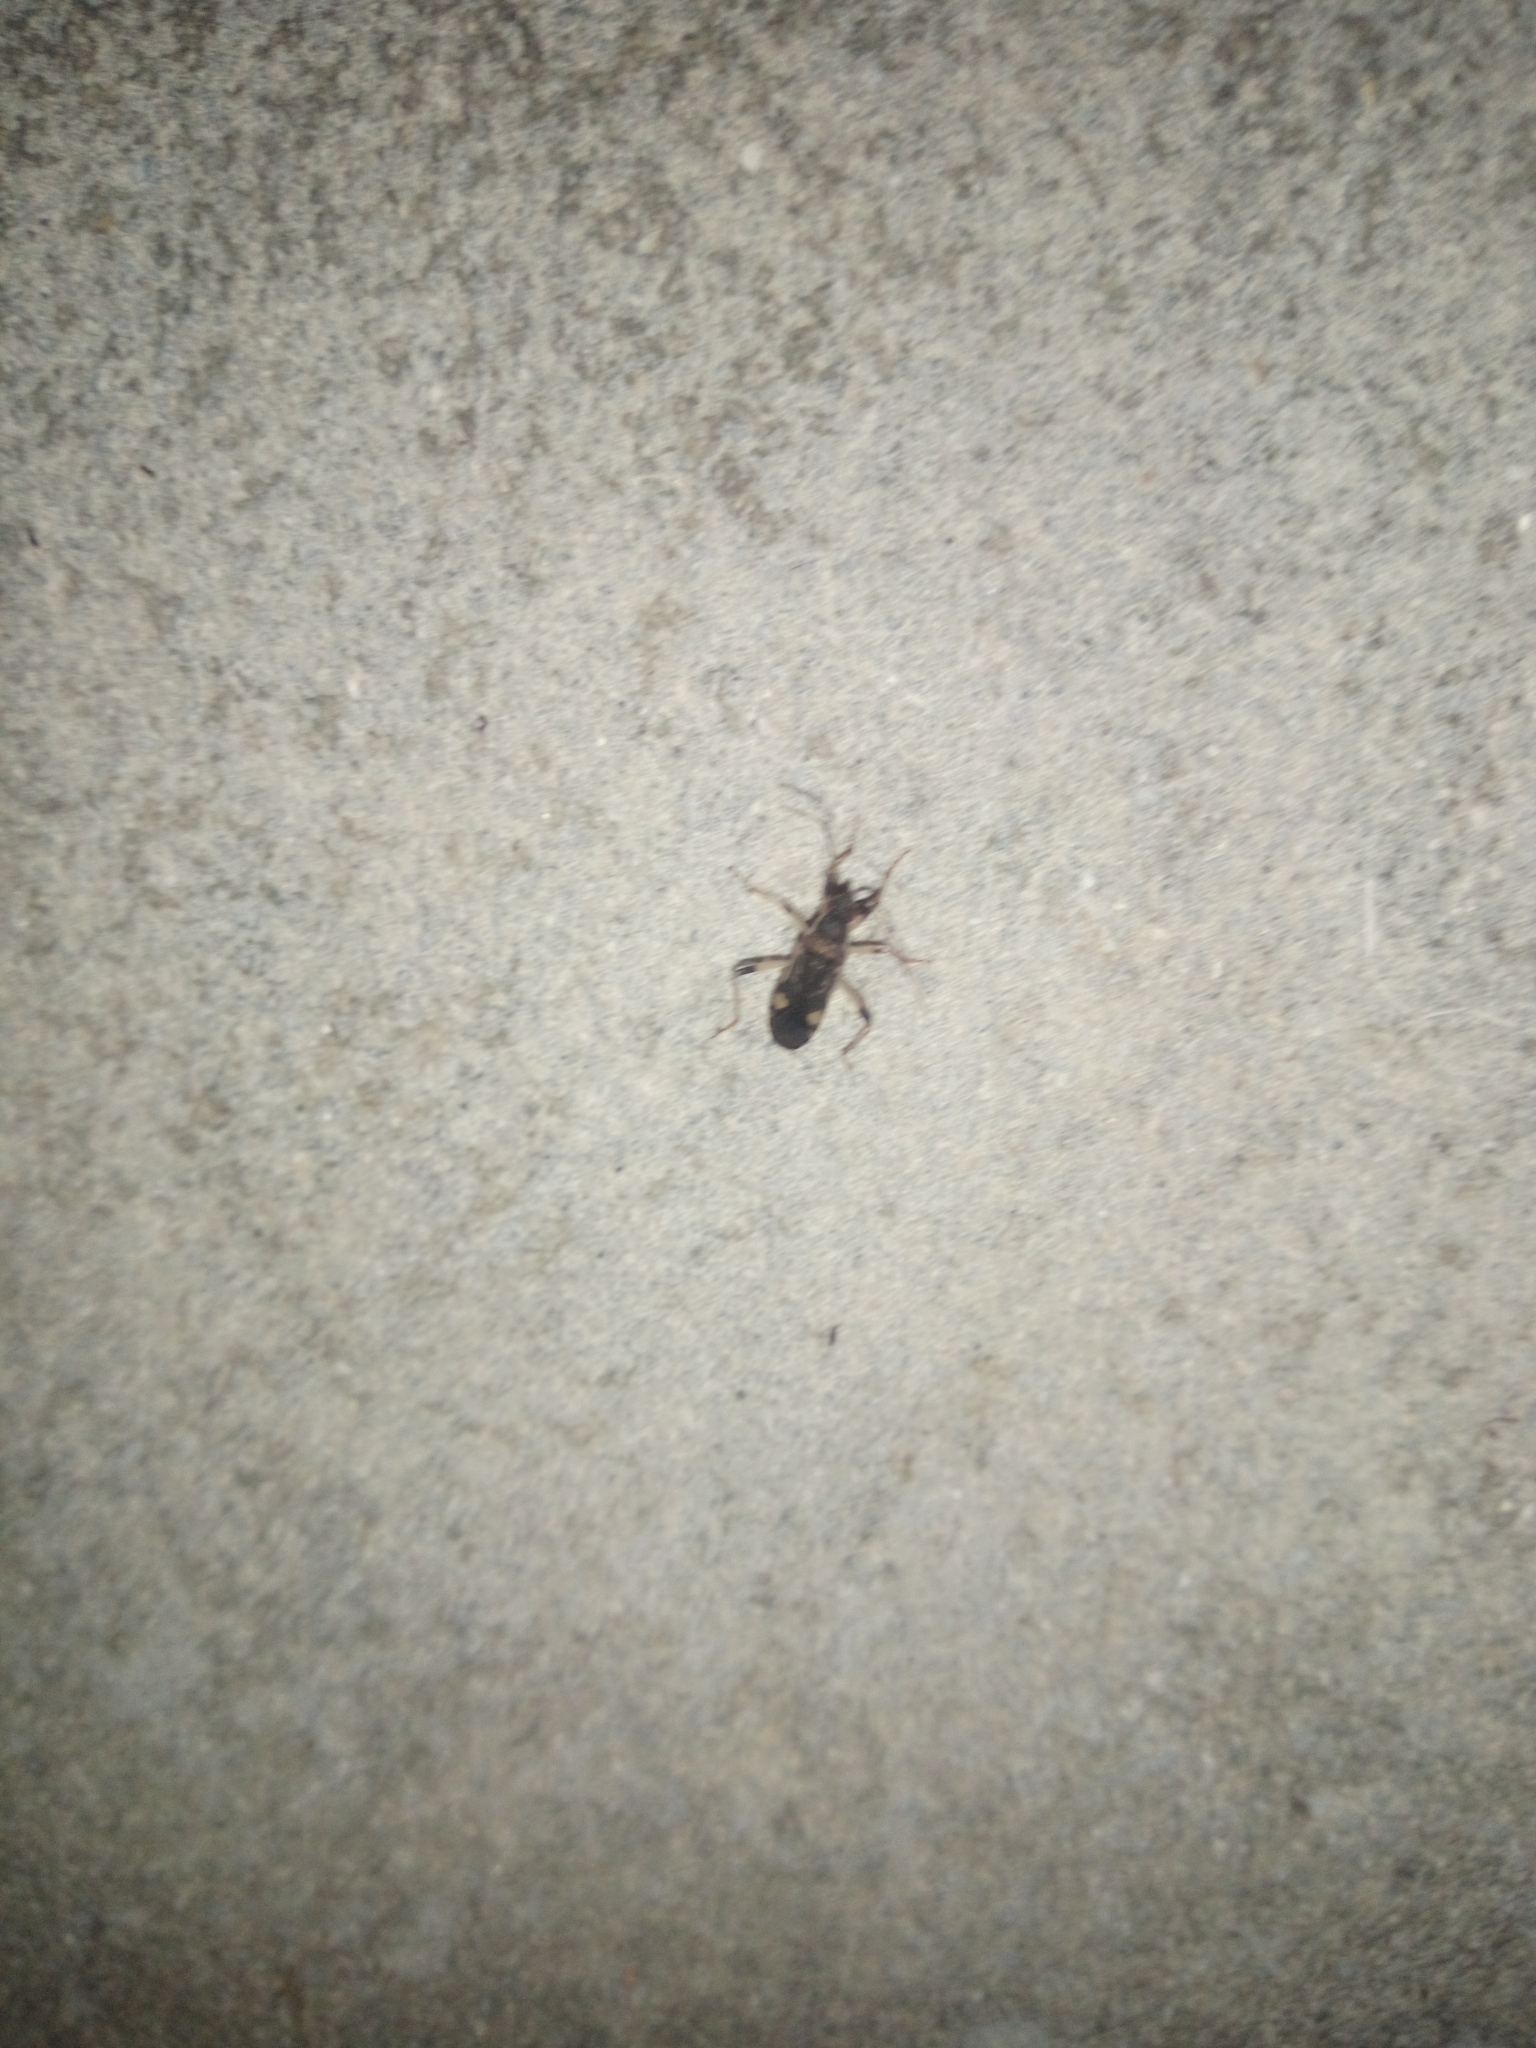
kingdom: Animalia
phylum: Arthropoda
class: Insecta
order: Hemiptera
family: Rhyparochromidae
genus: Dieuches
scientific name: Dieuches armatipes
